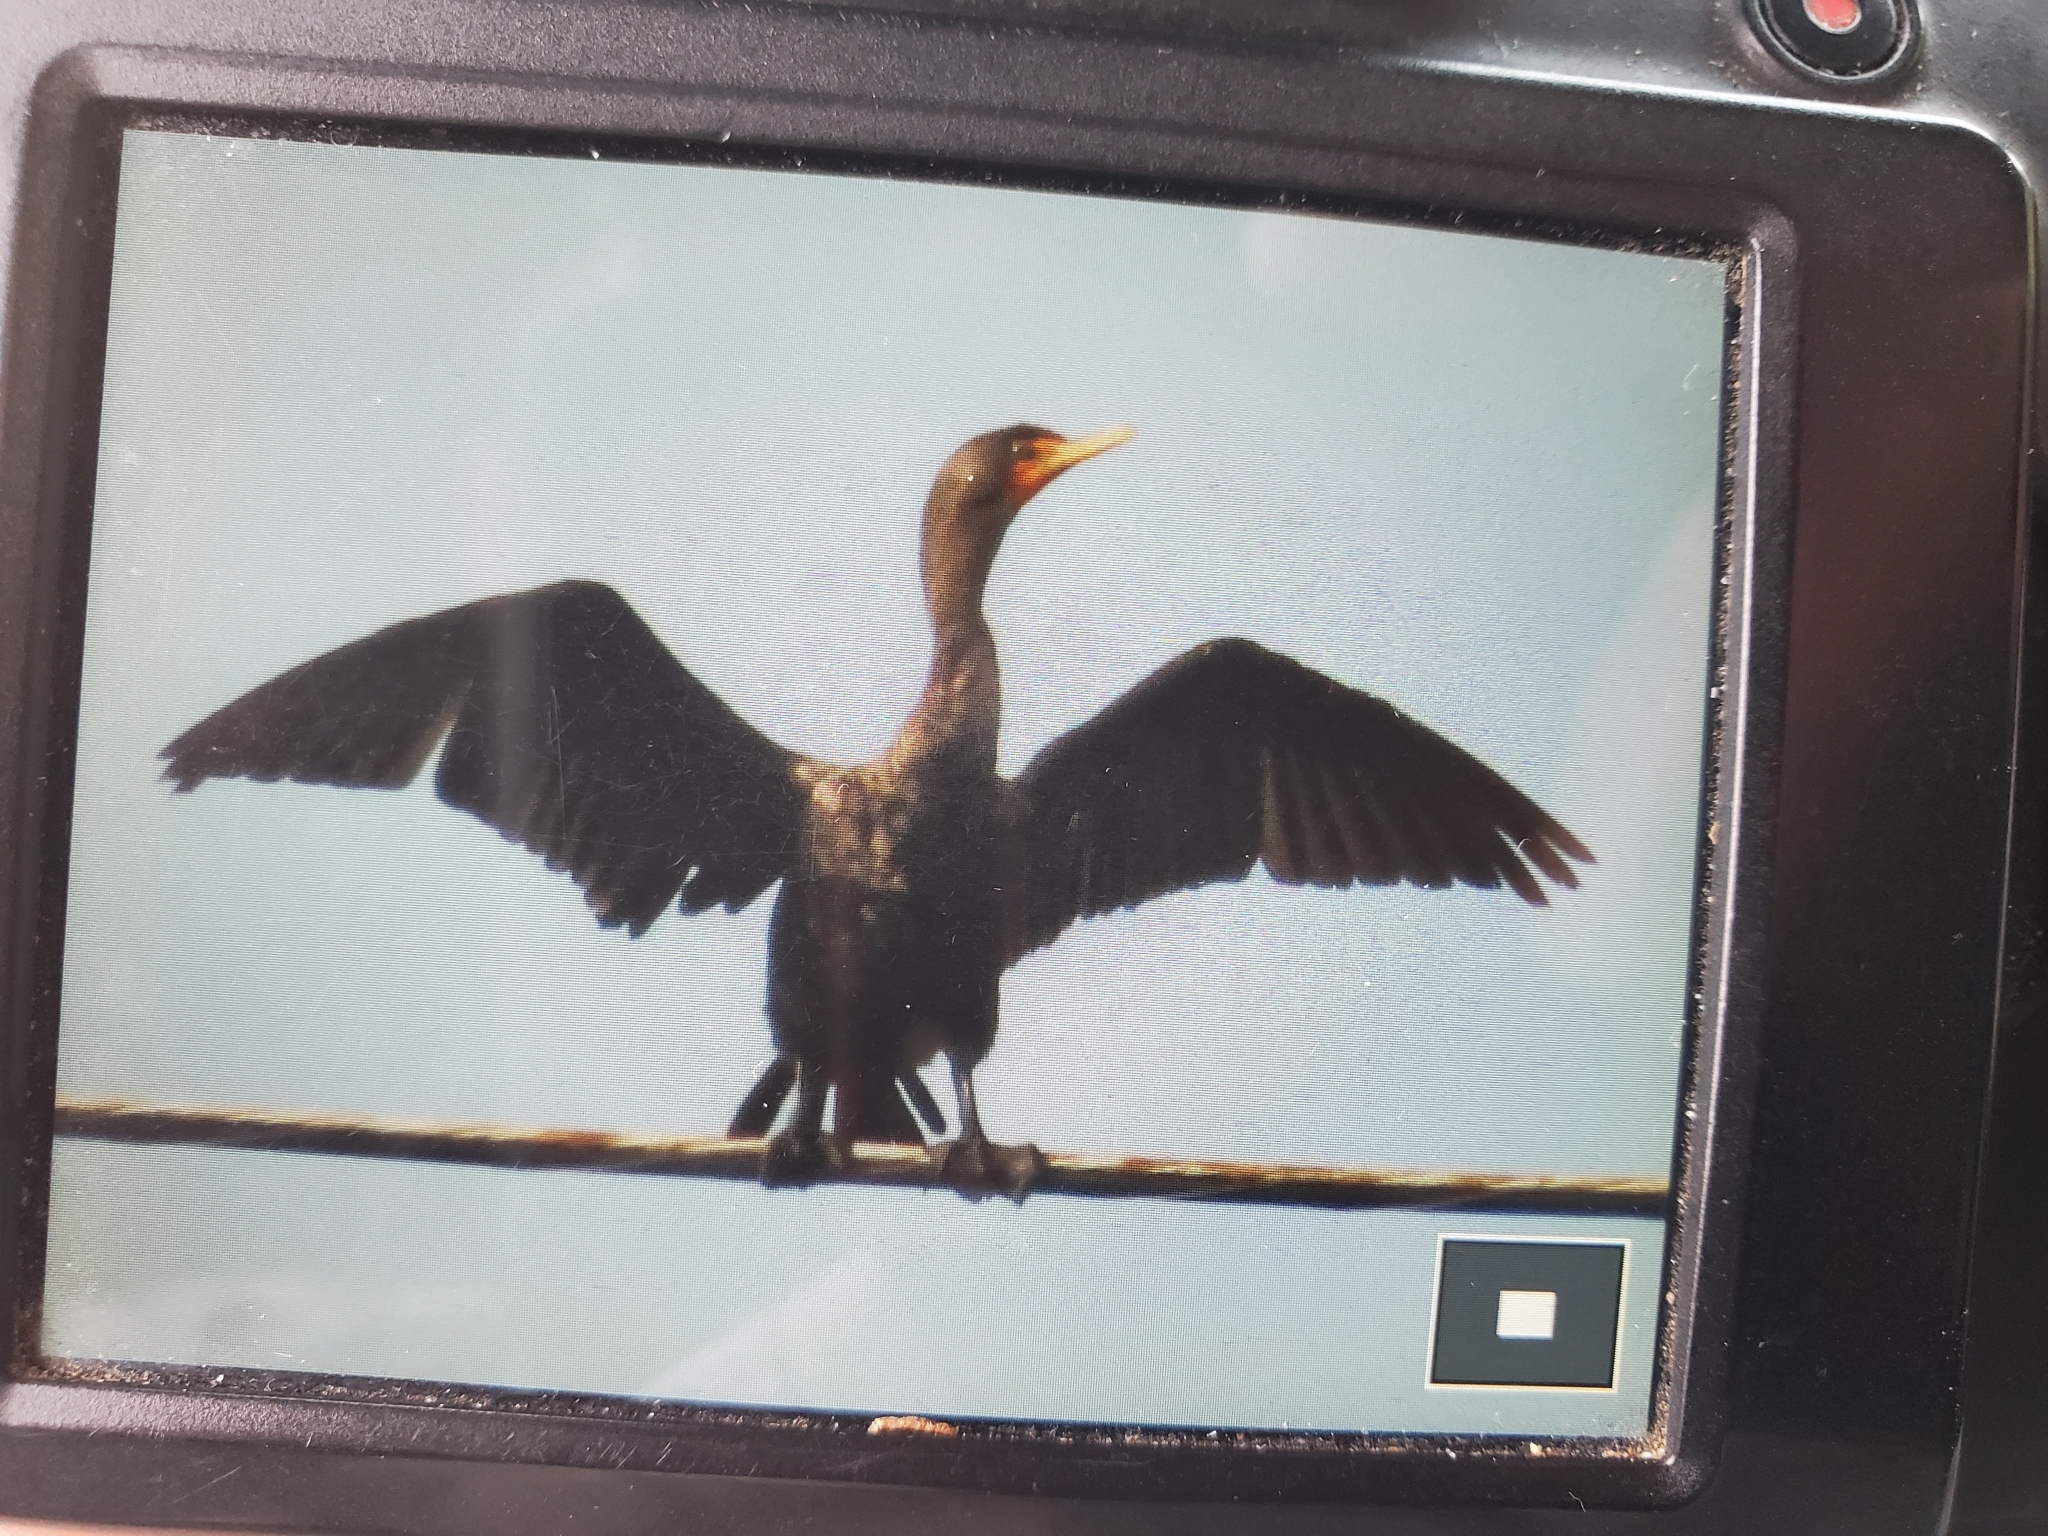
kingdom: Animalia
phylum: Chordata
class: Aves
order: Suliformes
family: Phalacrocoracidae
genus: Phalacrocorax
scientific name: Phalacrocorax auritus
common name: Double-crested cormorant
